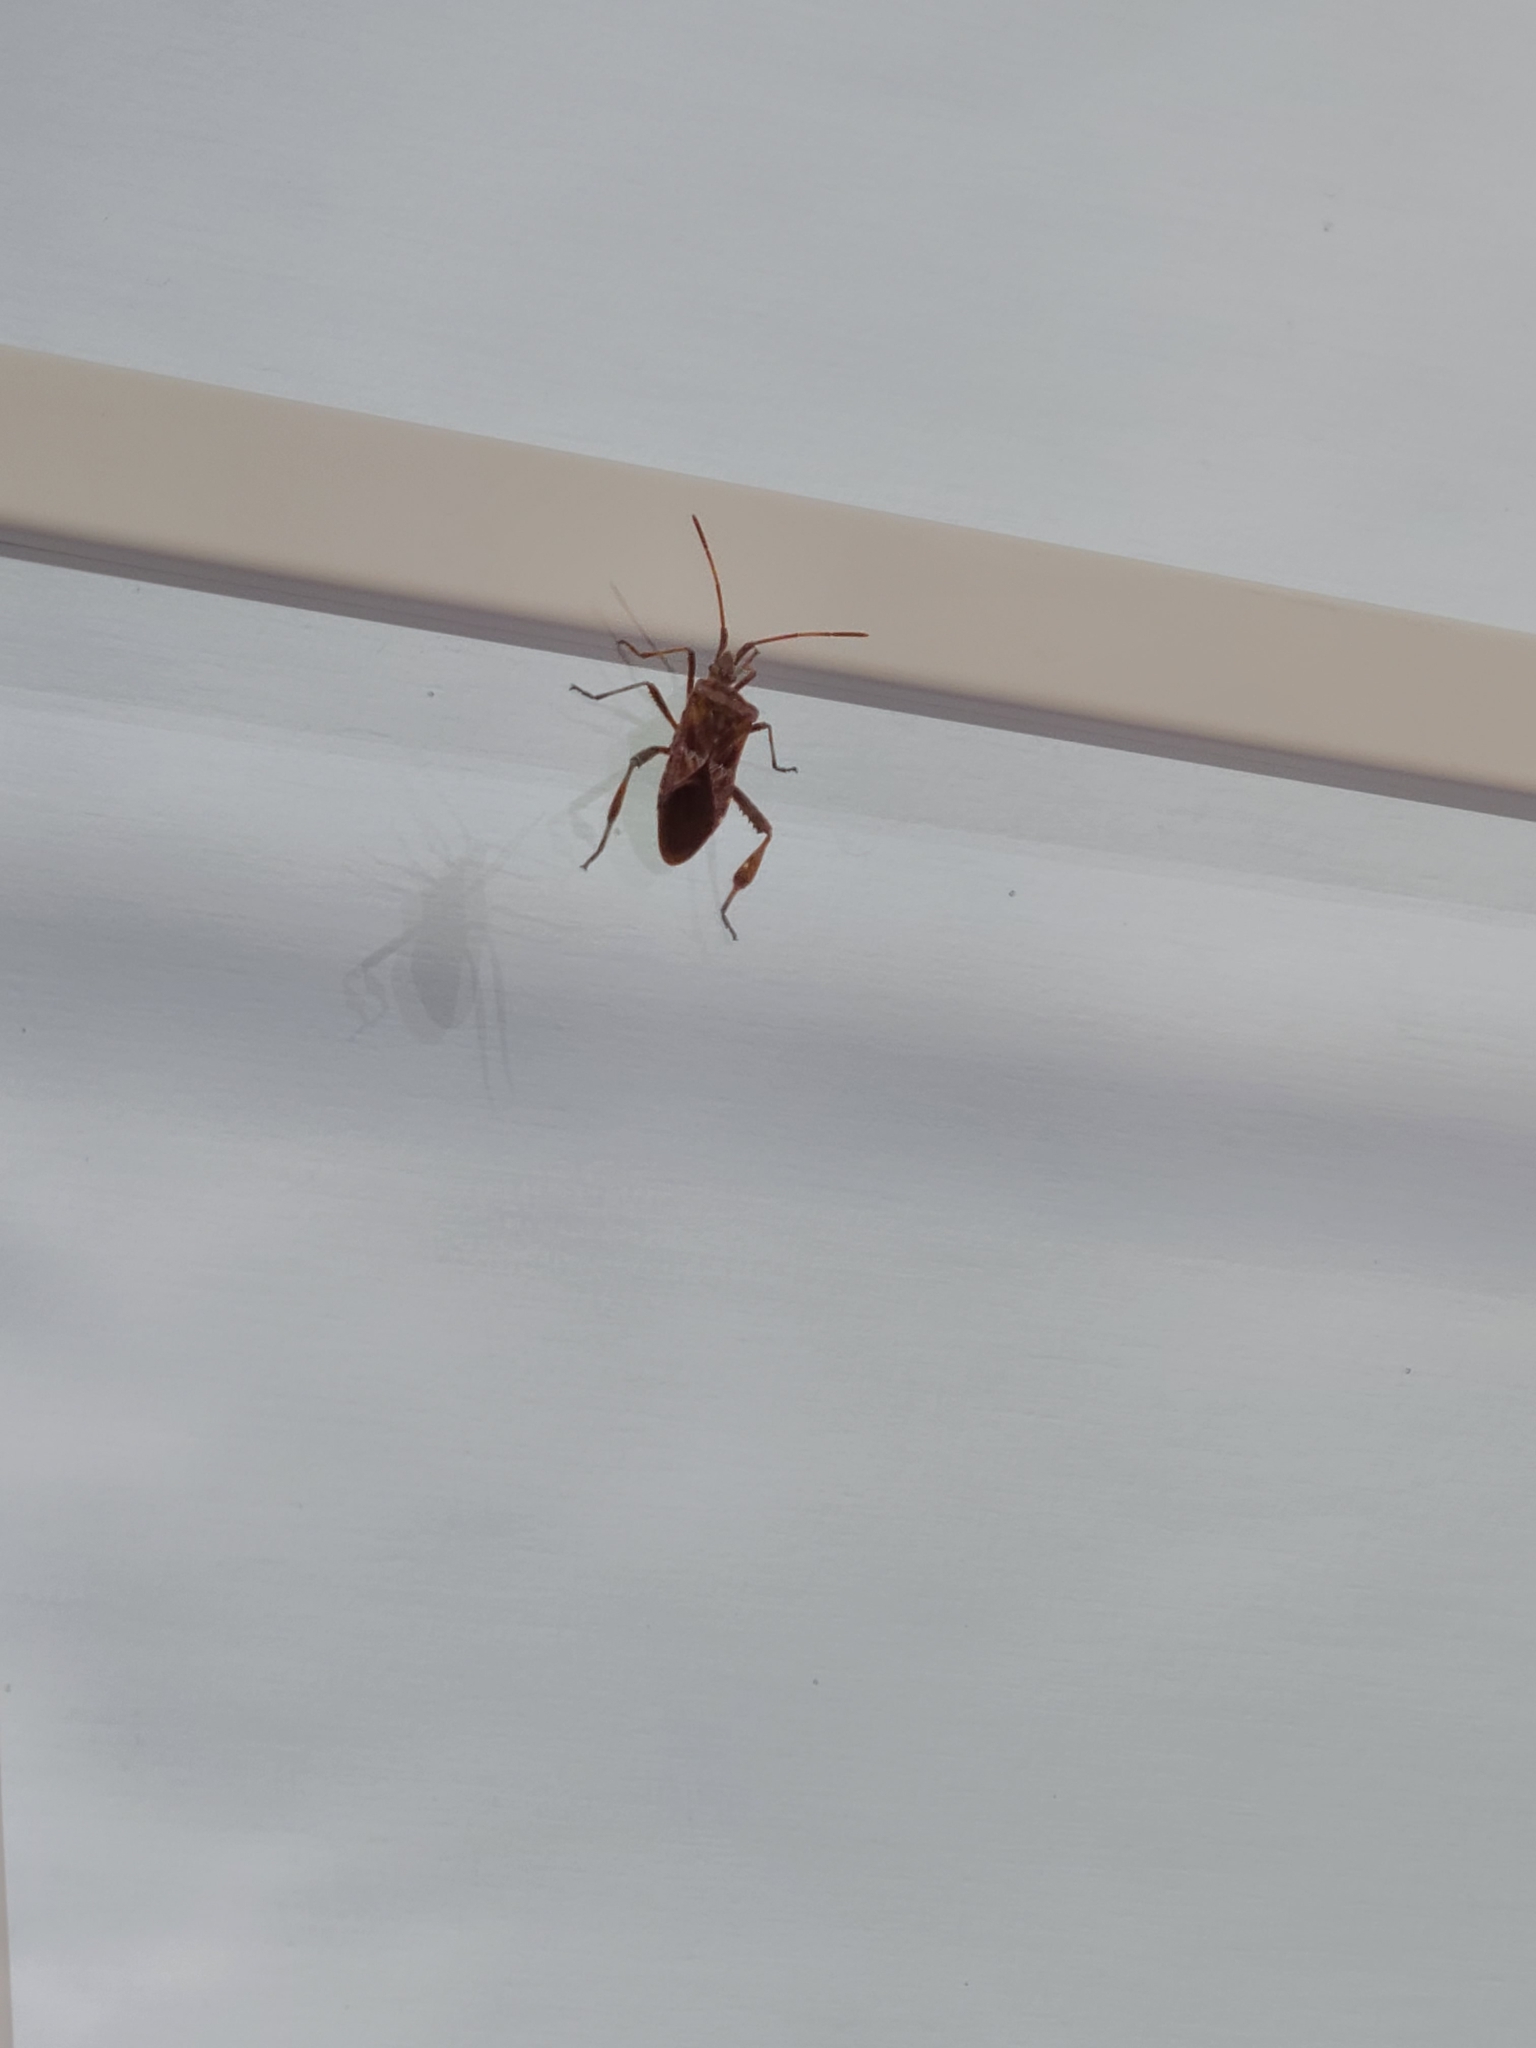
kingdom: Animalia
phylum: Arthropoda
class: Insecta
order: Hemiptera
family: Coreidae
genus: Leptoglossus
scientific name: Leptoglossus occidentalis
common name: Western conifer-seed bug
